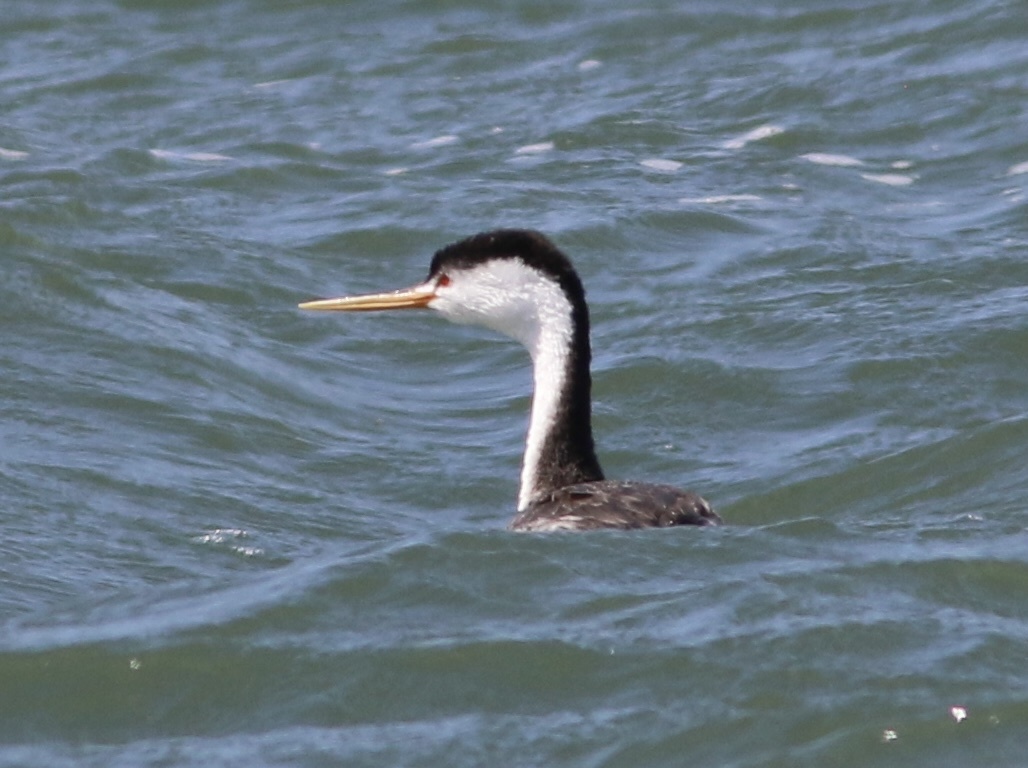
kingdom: Animalia
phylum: Chordata
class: Aves
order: Podicipediformes
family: Podicipedidae
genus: Aechmophorus
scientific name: Aechmophorus clarkii
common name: Clark's grebe
